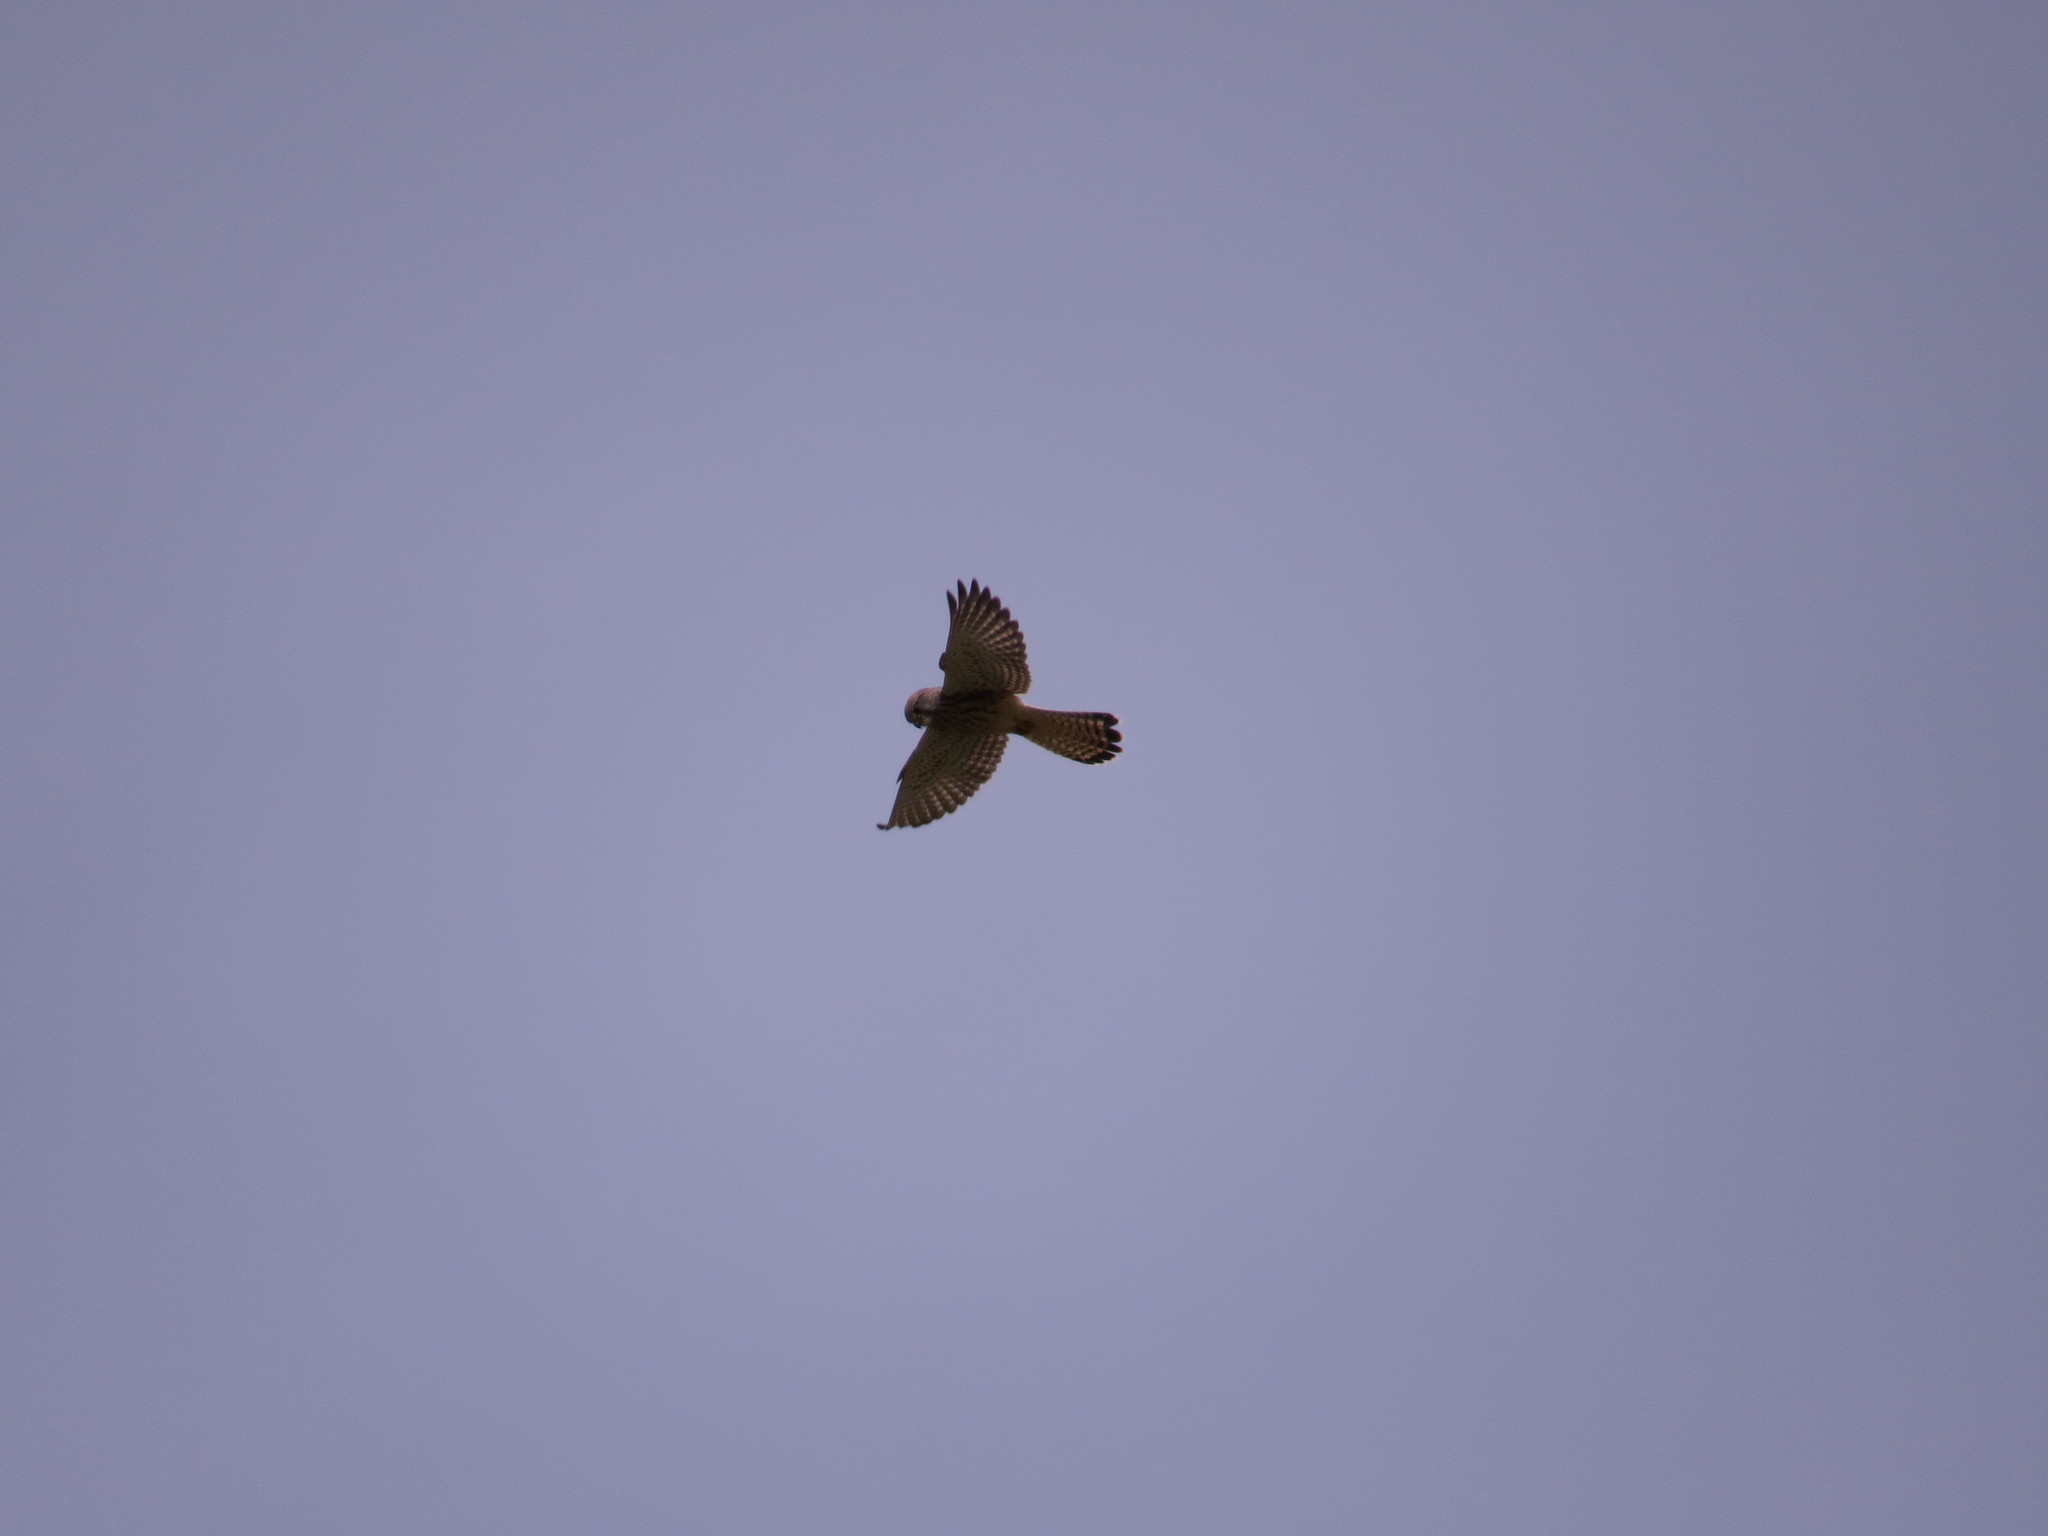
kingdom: Animalia
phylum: Chordata
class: Aves
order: Falconiformes
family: Falconidae
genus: Falco
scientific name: Falco tinnunculus
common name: Common kestrel
